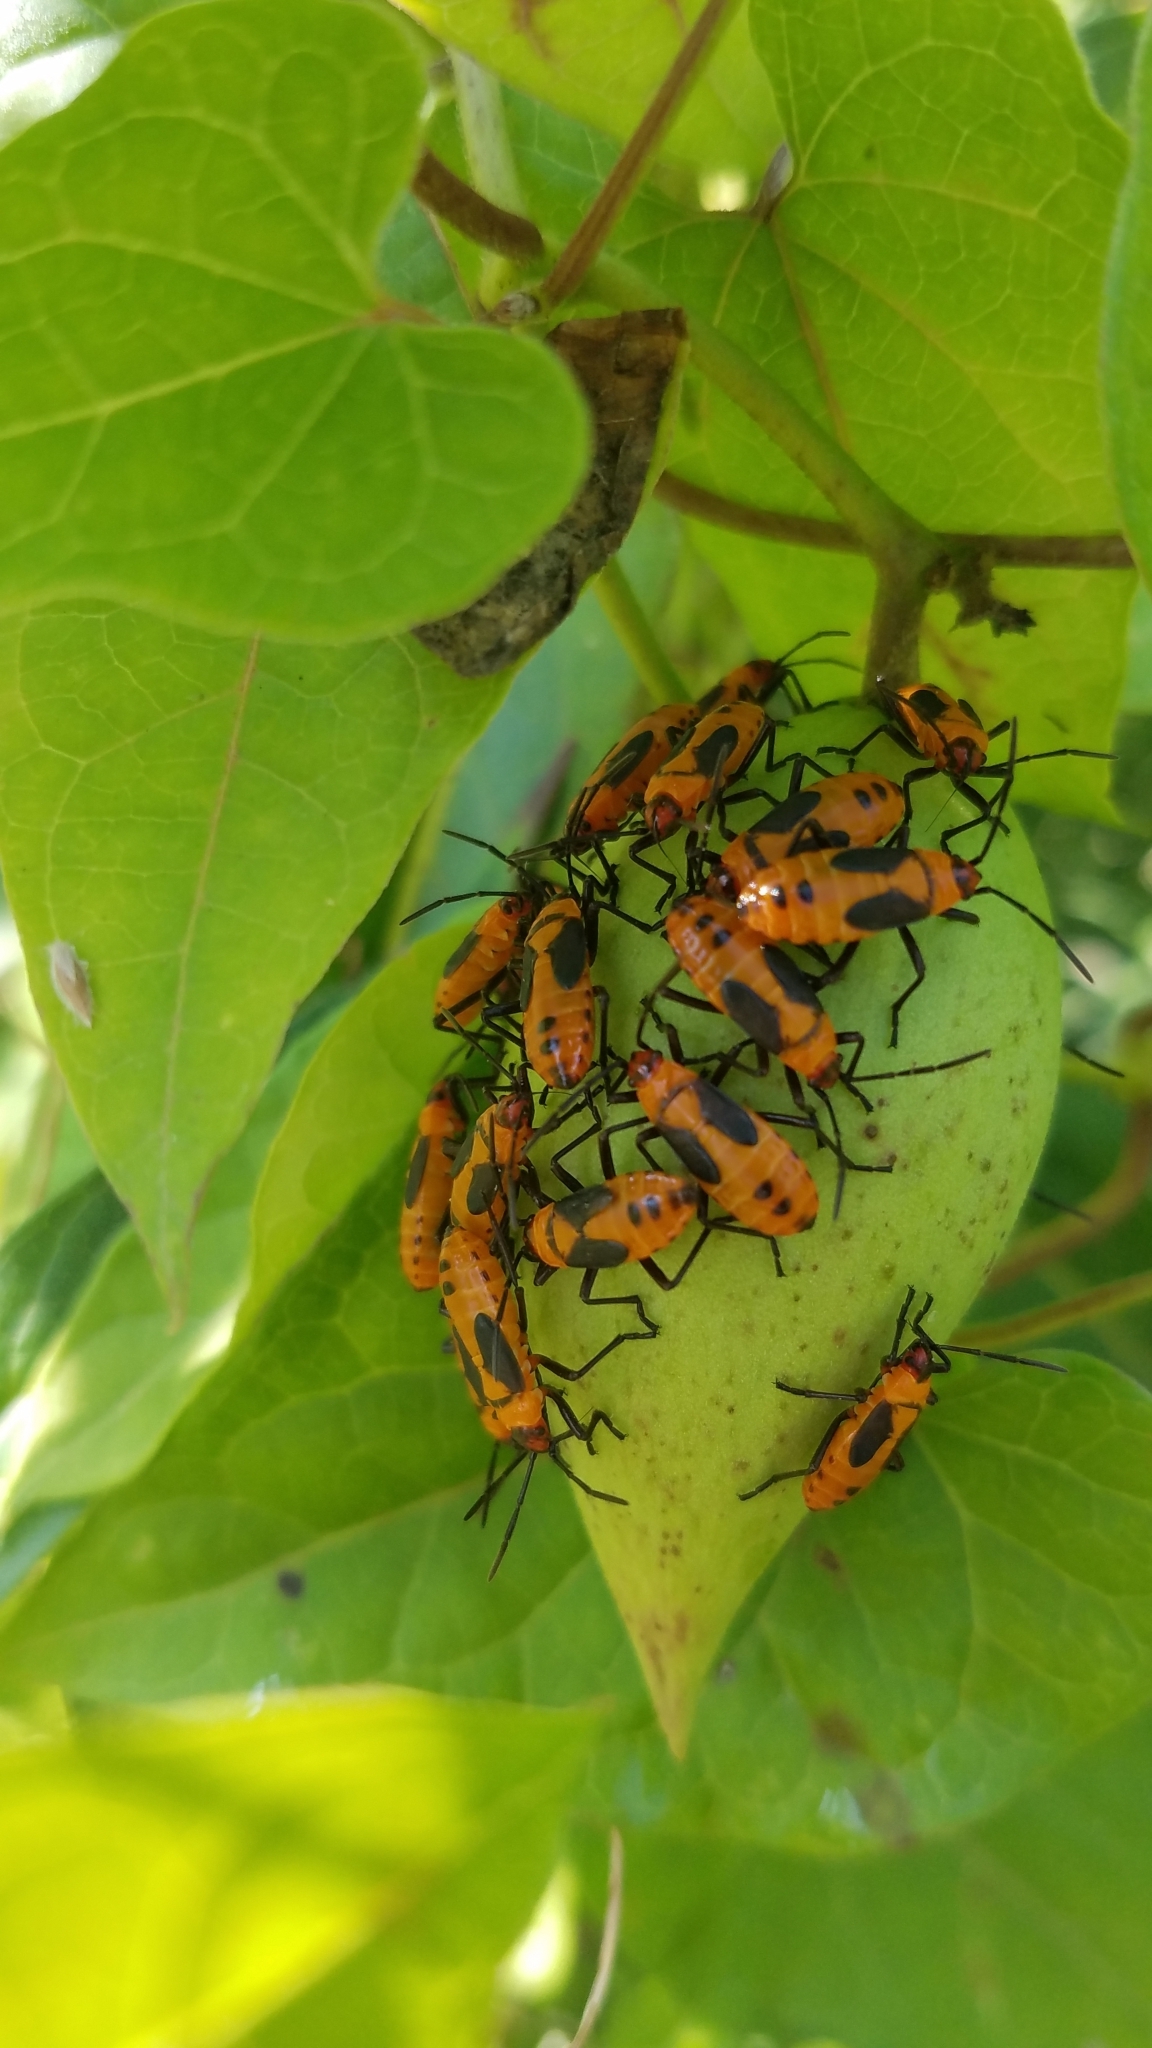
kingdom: Animalia
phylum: Arthropoda
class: Insecta
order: Hemiptera
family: Lygaeidae
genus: Oncopeltus
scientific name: Oncopeltus fasciatus
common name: Large milkweed bug
